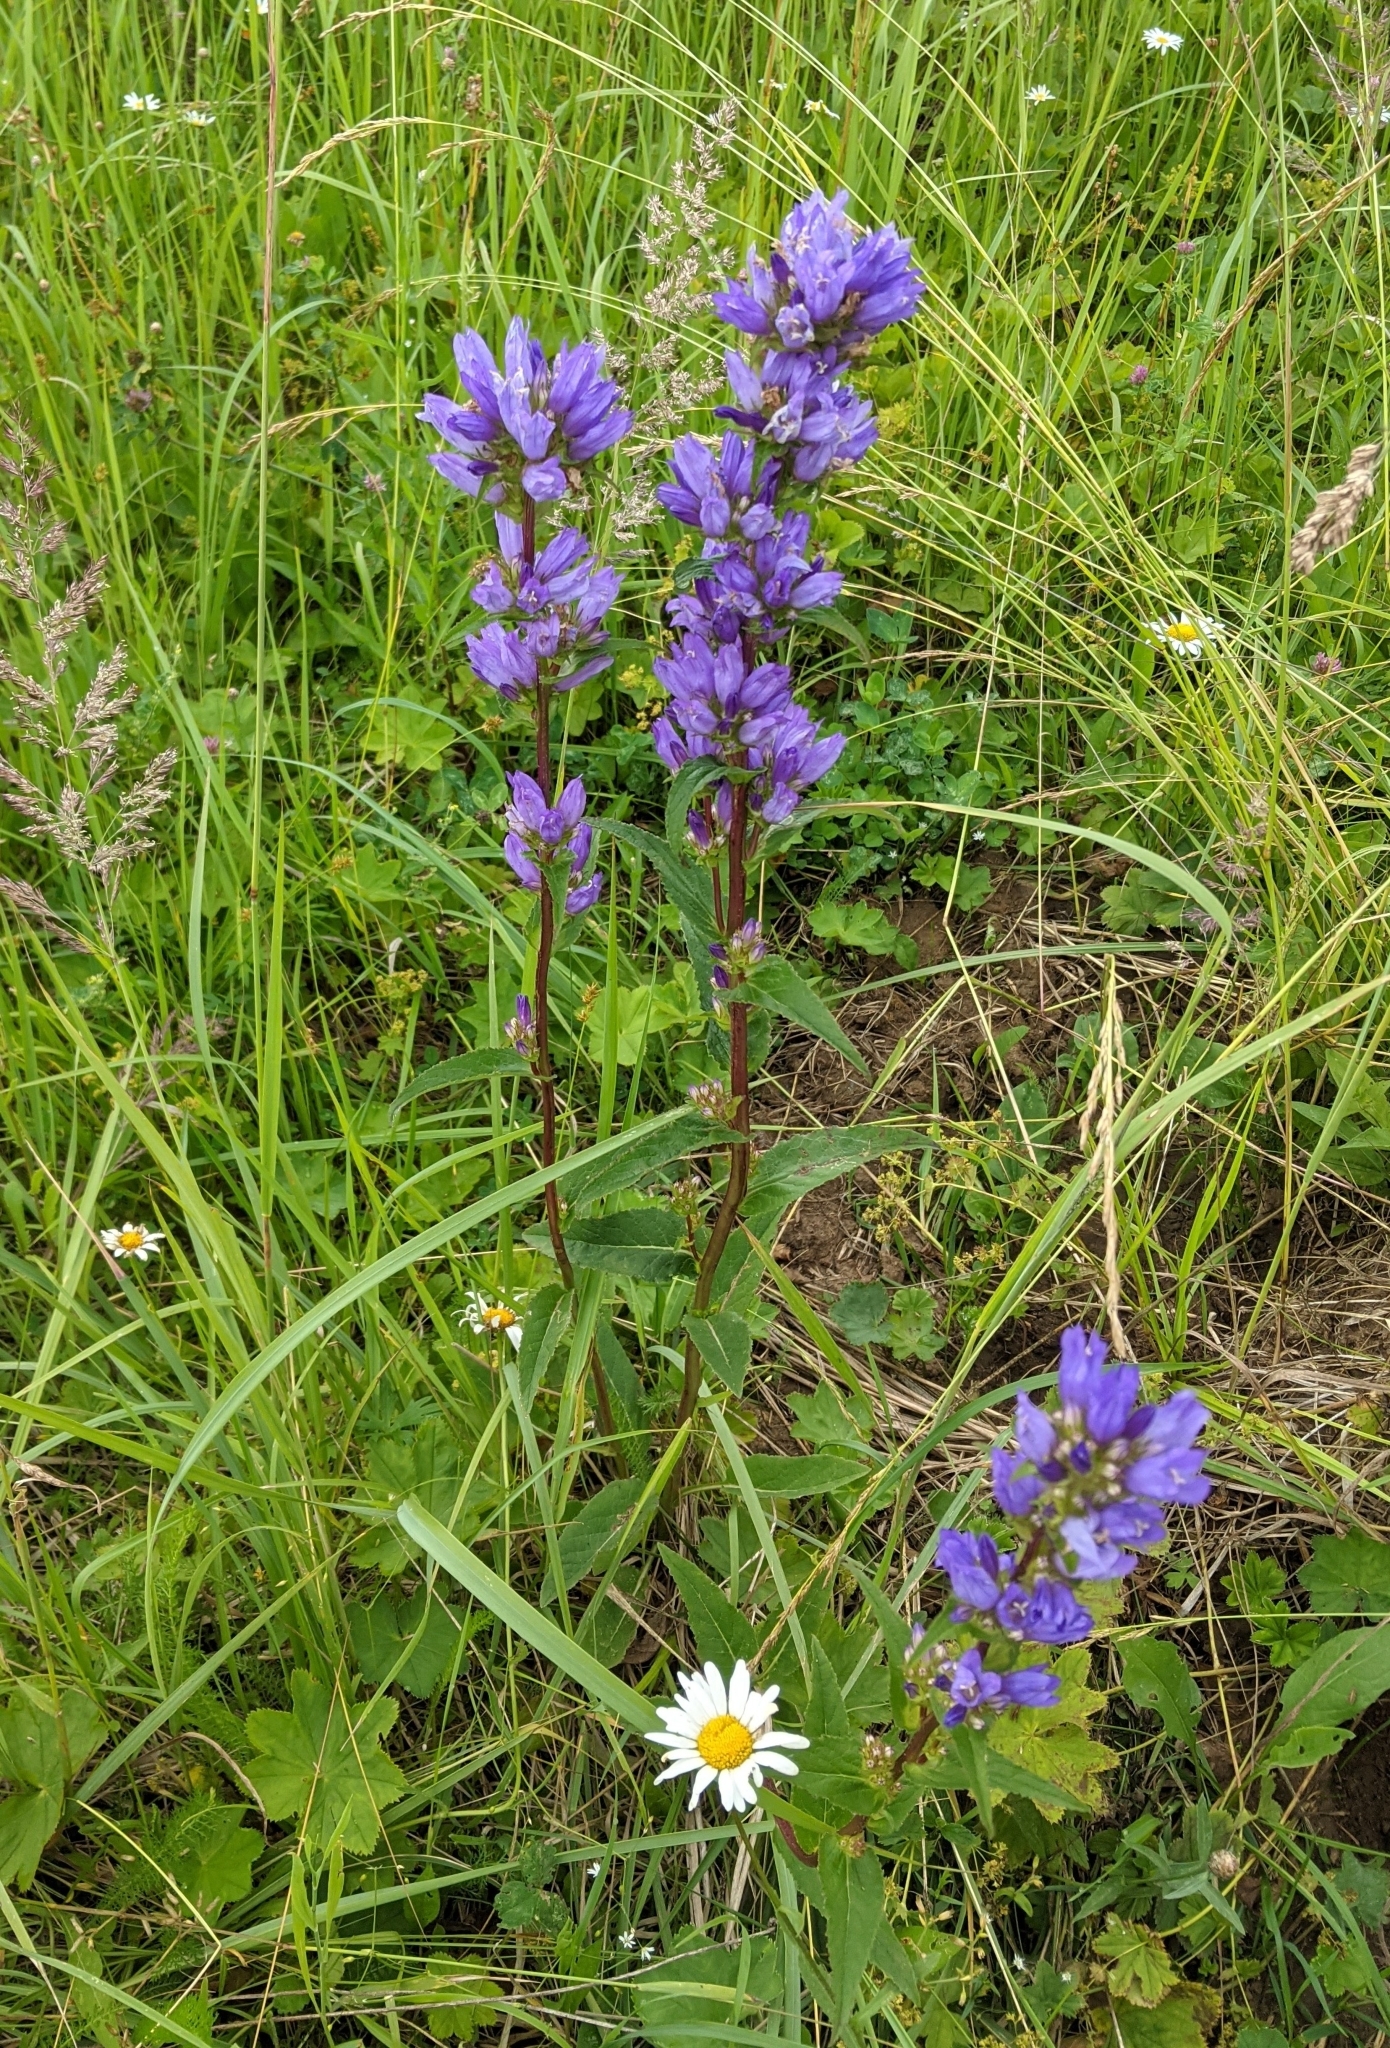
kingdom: Plantae
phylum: Tracheophyta
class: Magnoliopsida
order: Asterales
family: Campanulaceae
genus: Campanula
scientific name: Campanula glomerata
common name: Clustered bellflower
